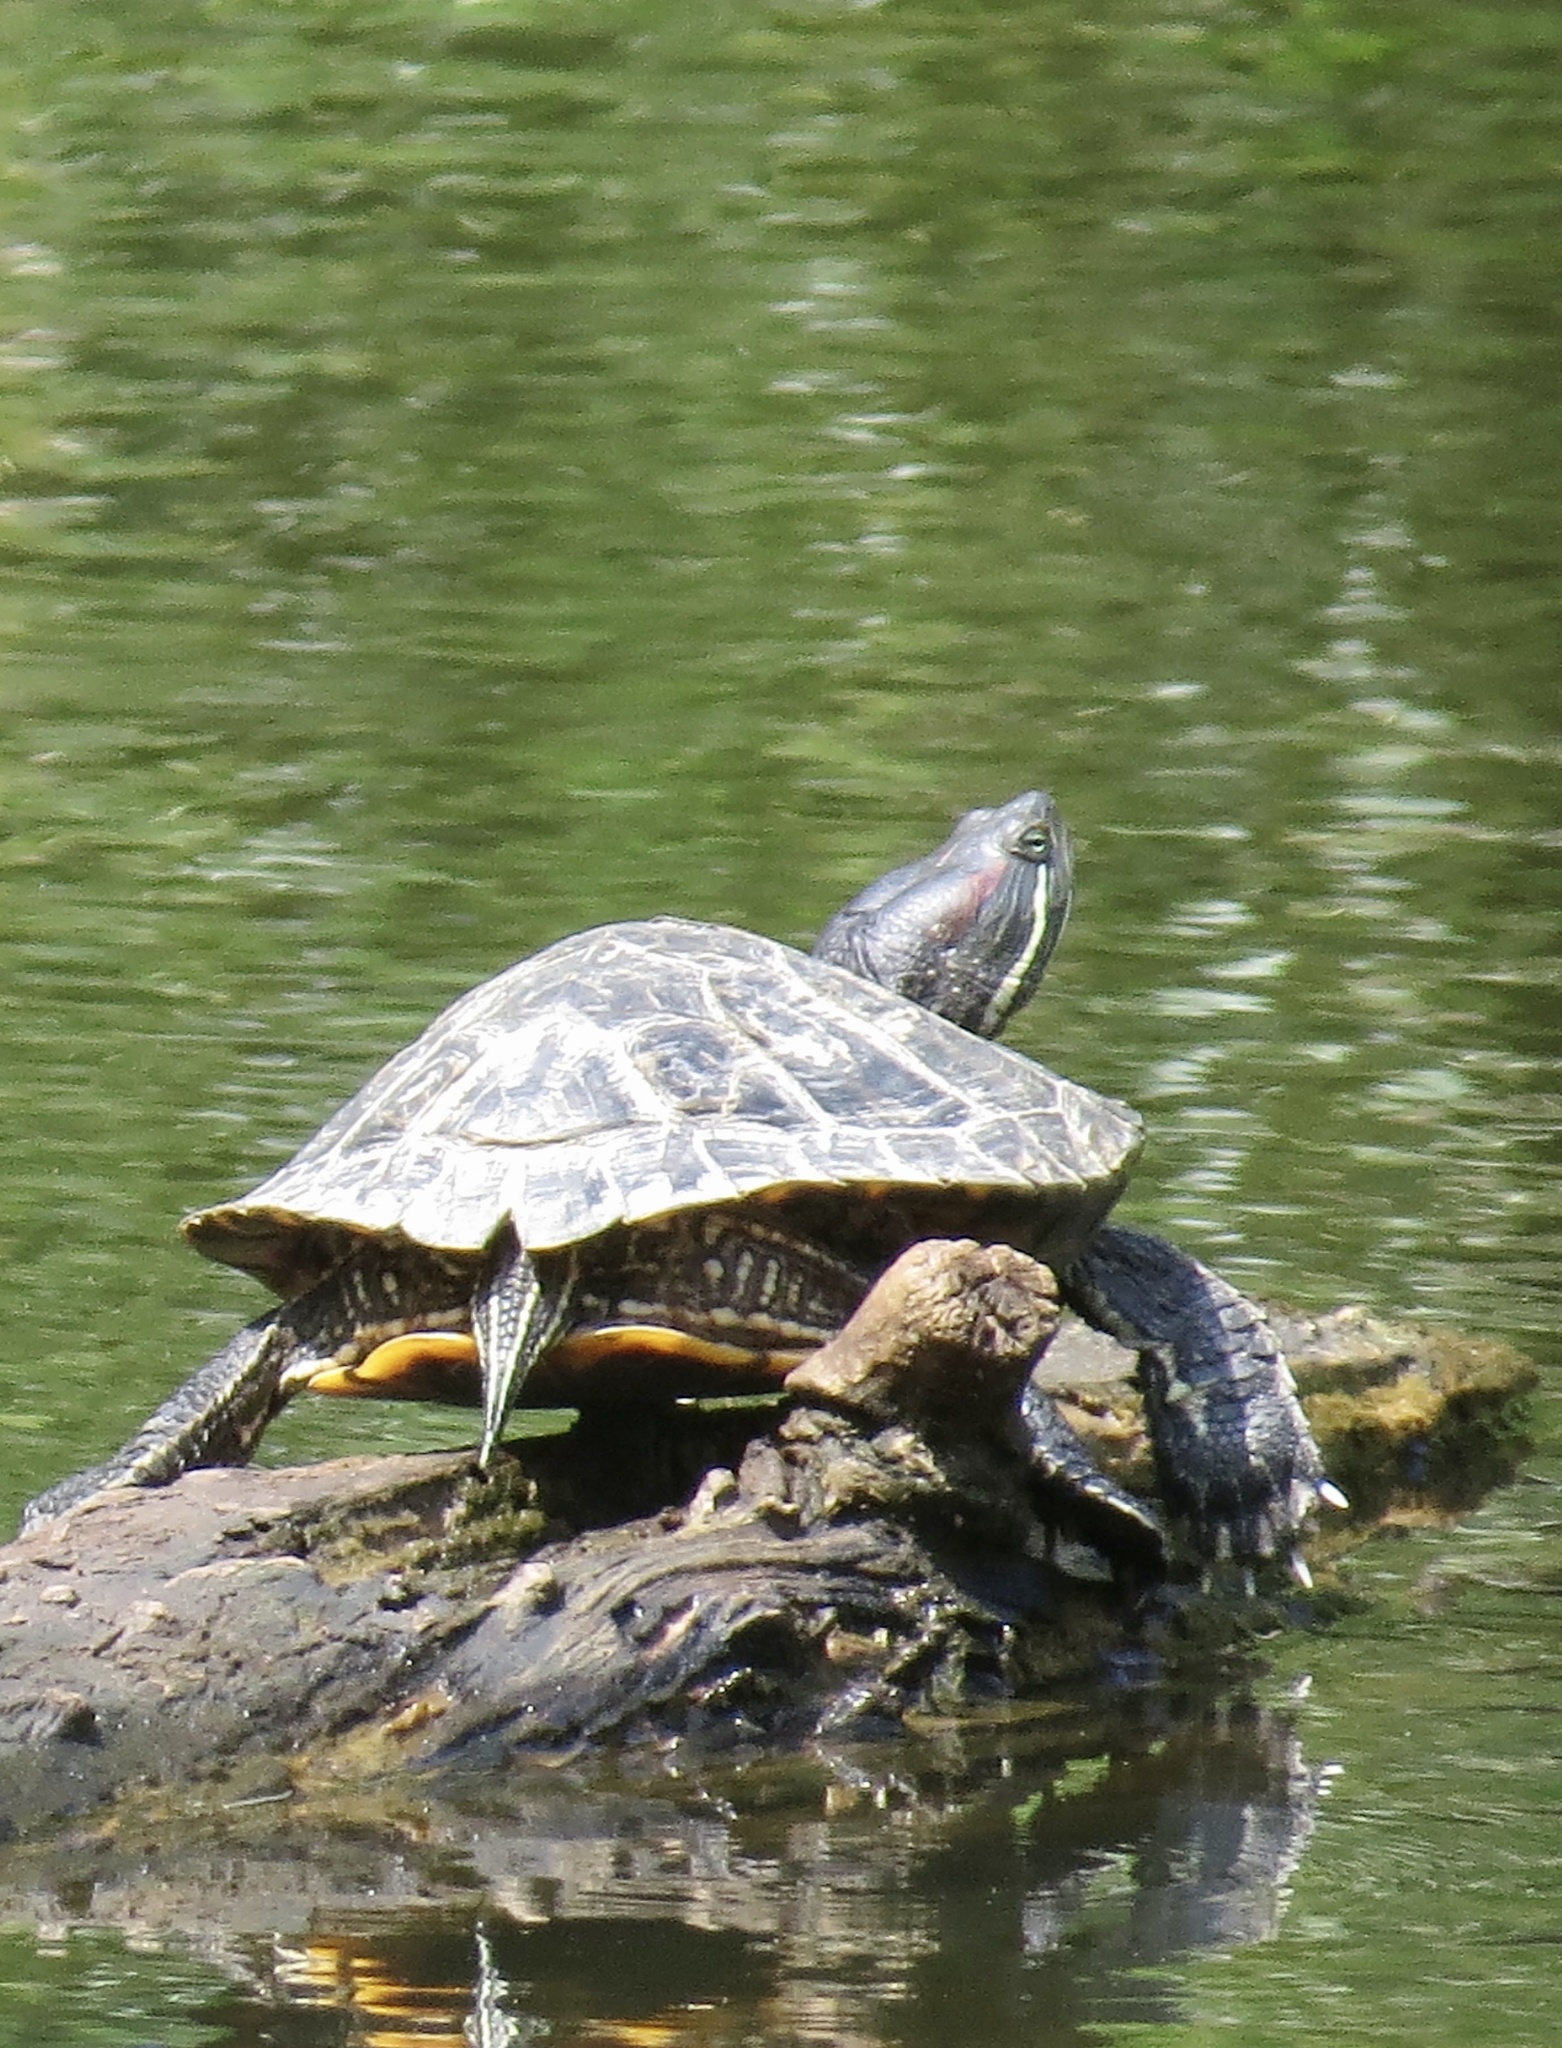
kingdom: Animalia
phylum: Chordata
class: Testudines
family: Emydidae
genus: Trachemys
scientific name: Trachemys scripta
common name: Slider
